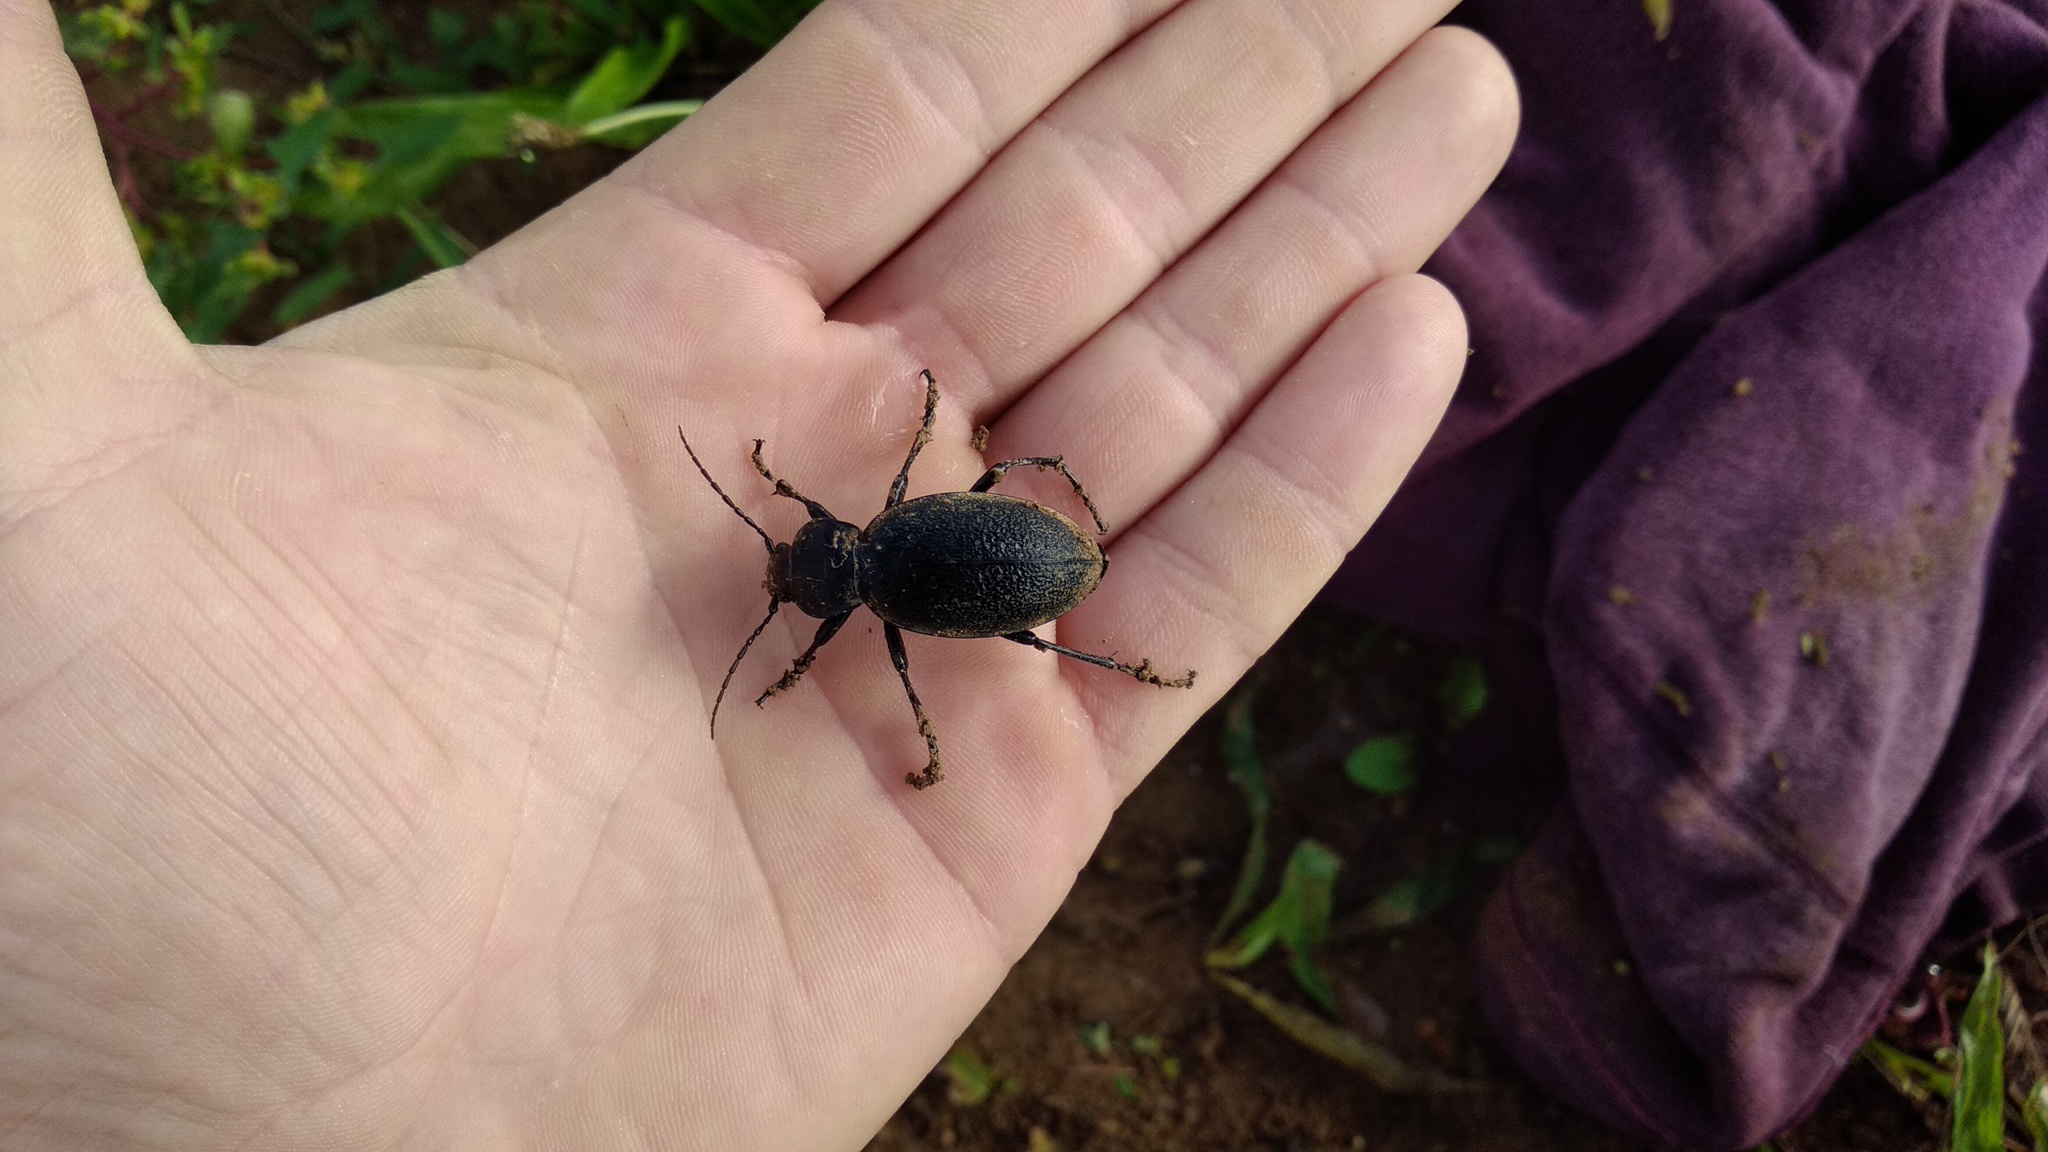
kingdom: Animalia
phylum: Arthropoda
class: Insecta
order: Coleoptera
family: Carabidae
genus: Carabus
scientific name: Carabus coriaceus
